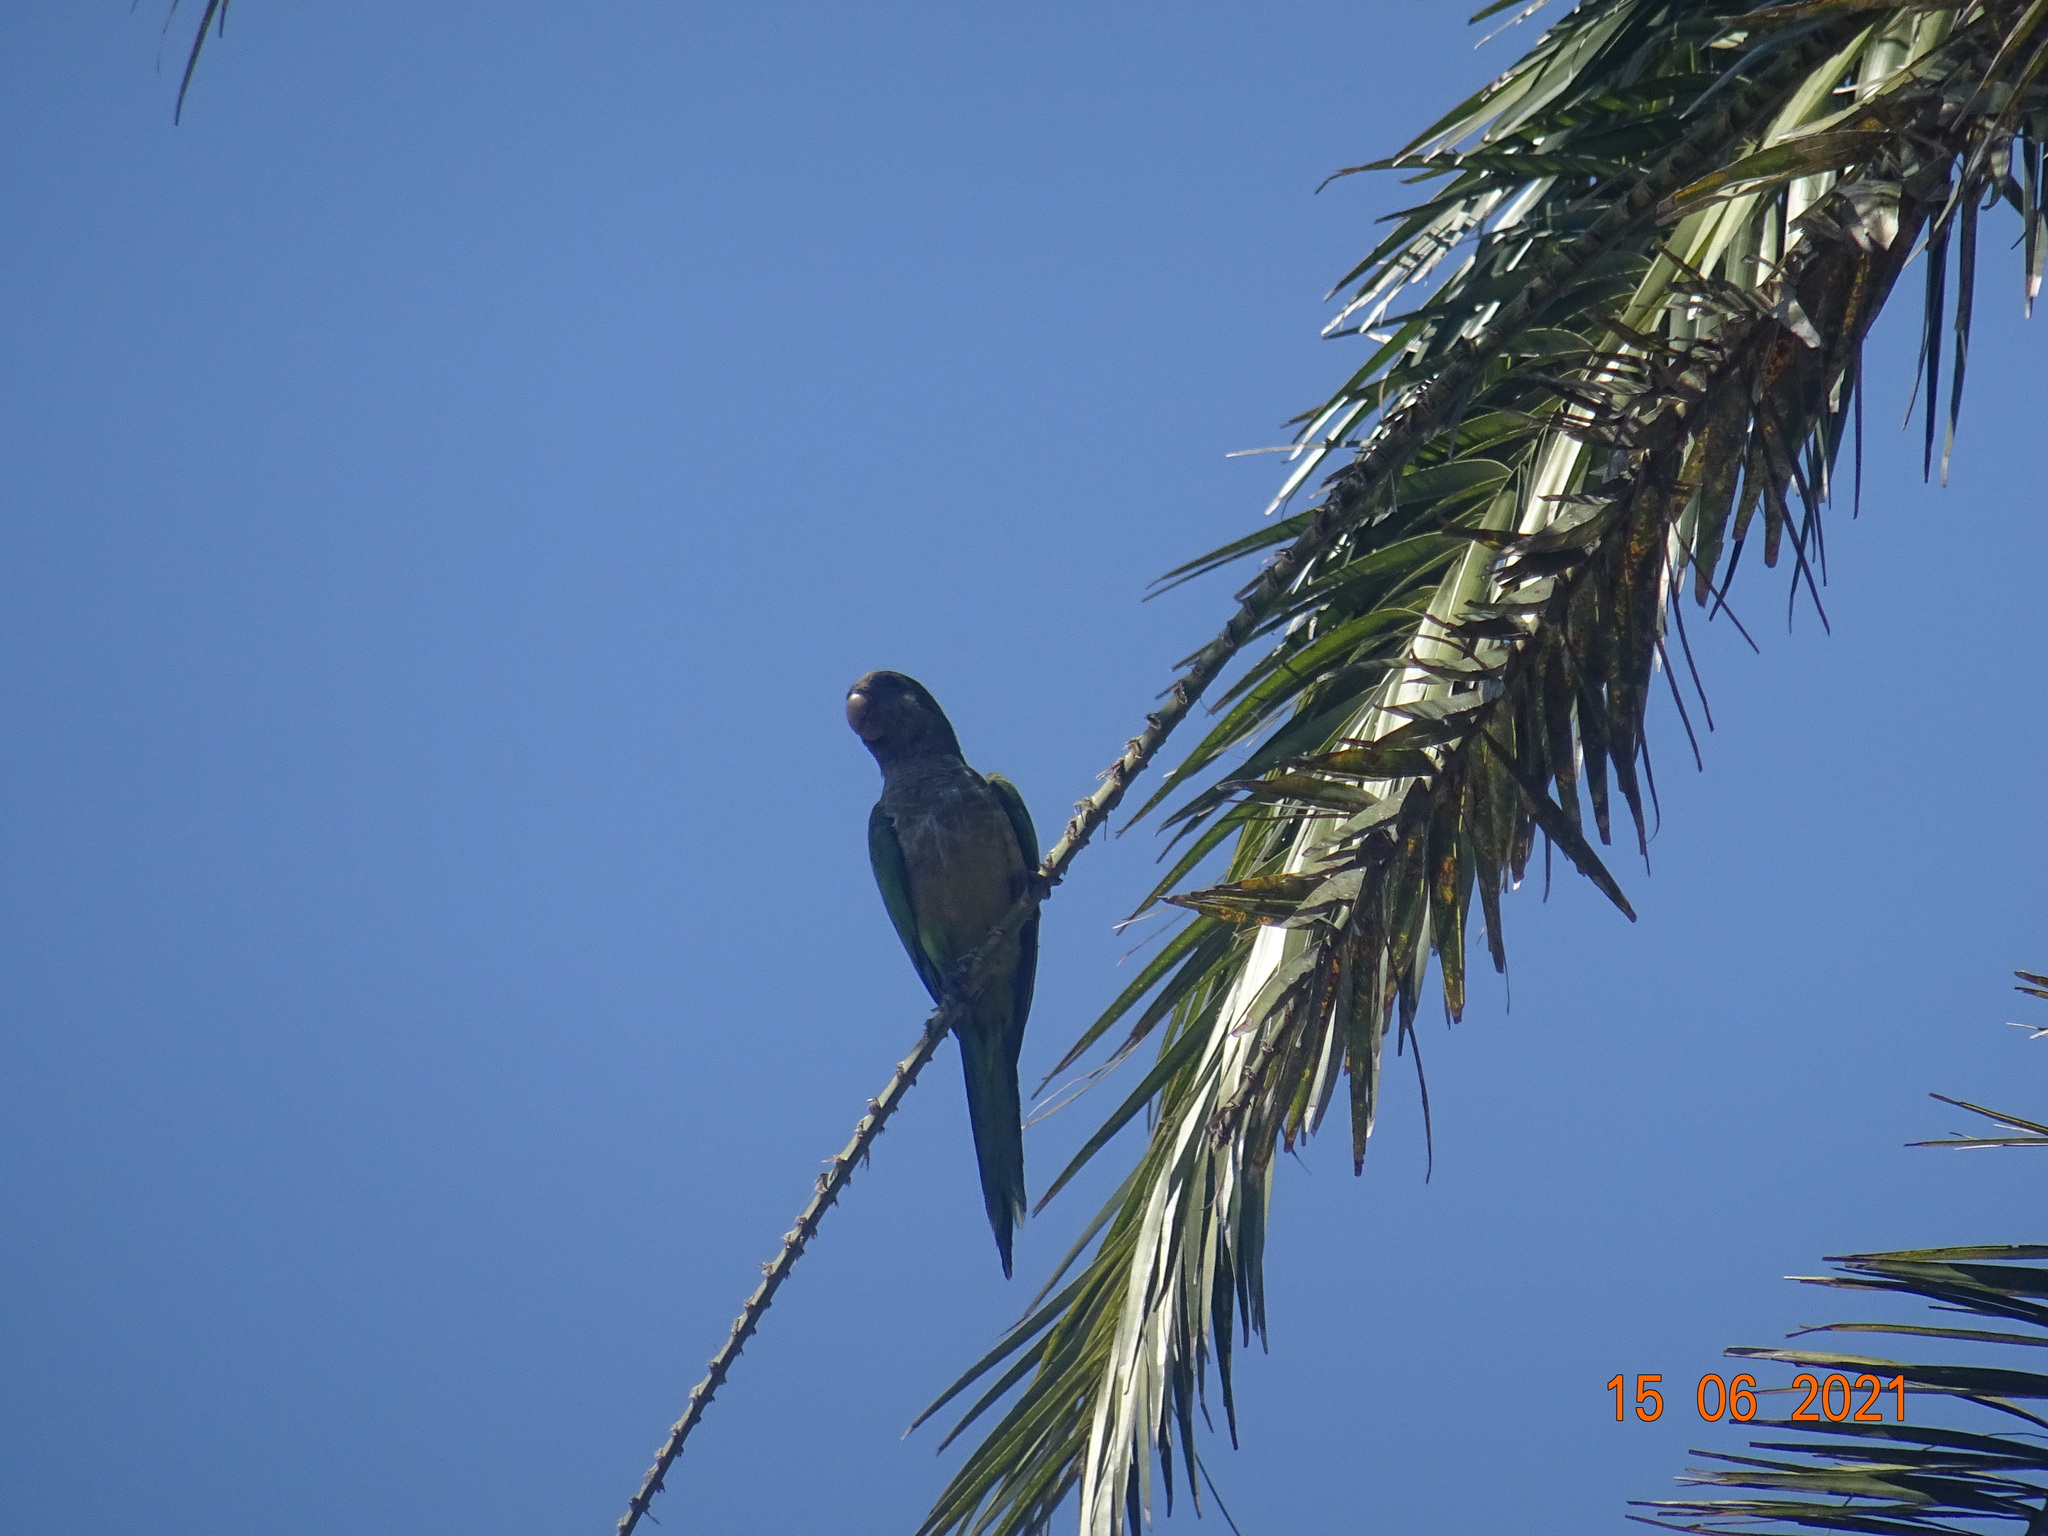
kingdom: Animalia
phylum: Chordata
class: Aves
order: Psittaciformes
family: Psittacidae
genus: Myiopsitta
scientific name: Myiopsitta monachus
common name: Monk parakeet
